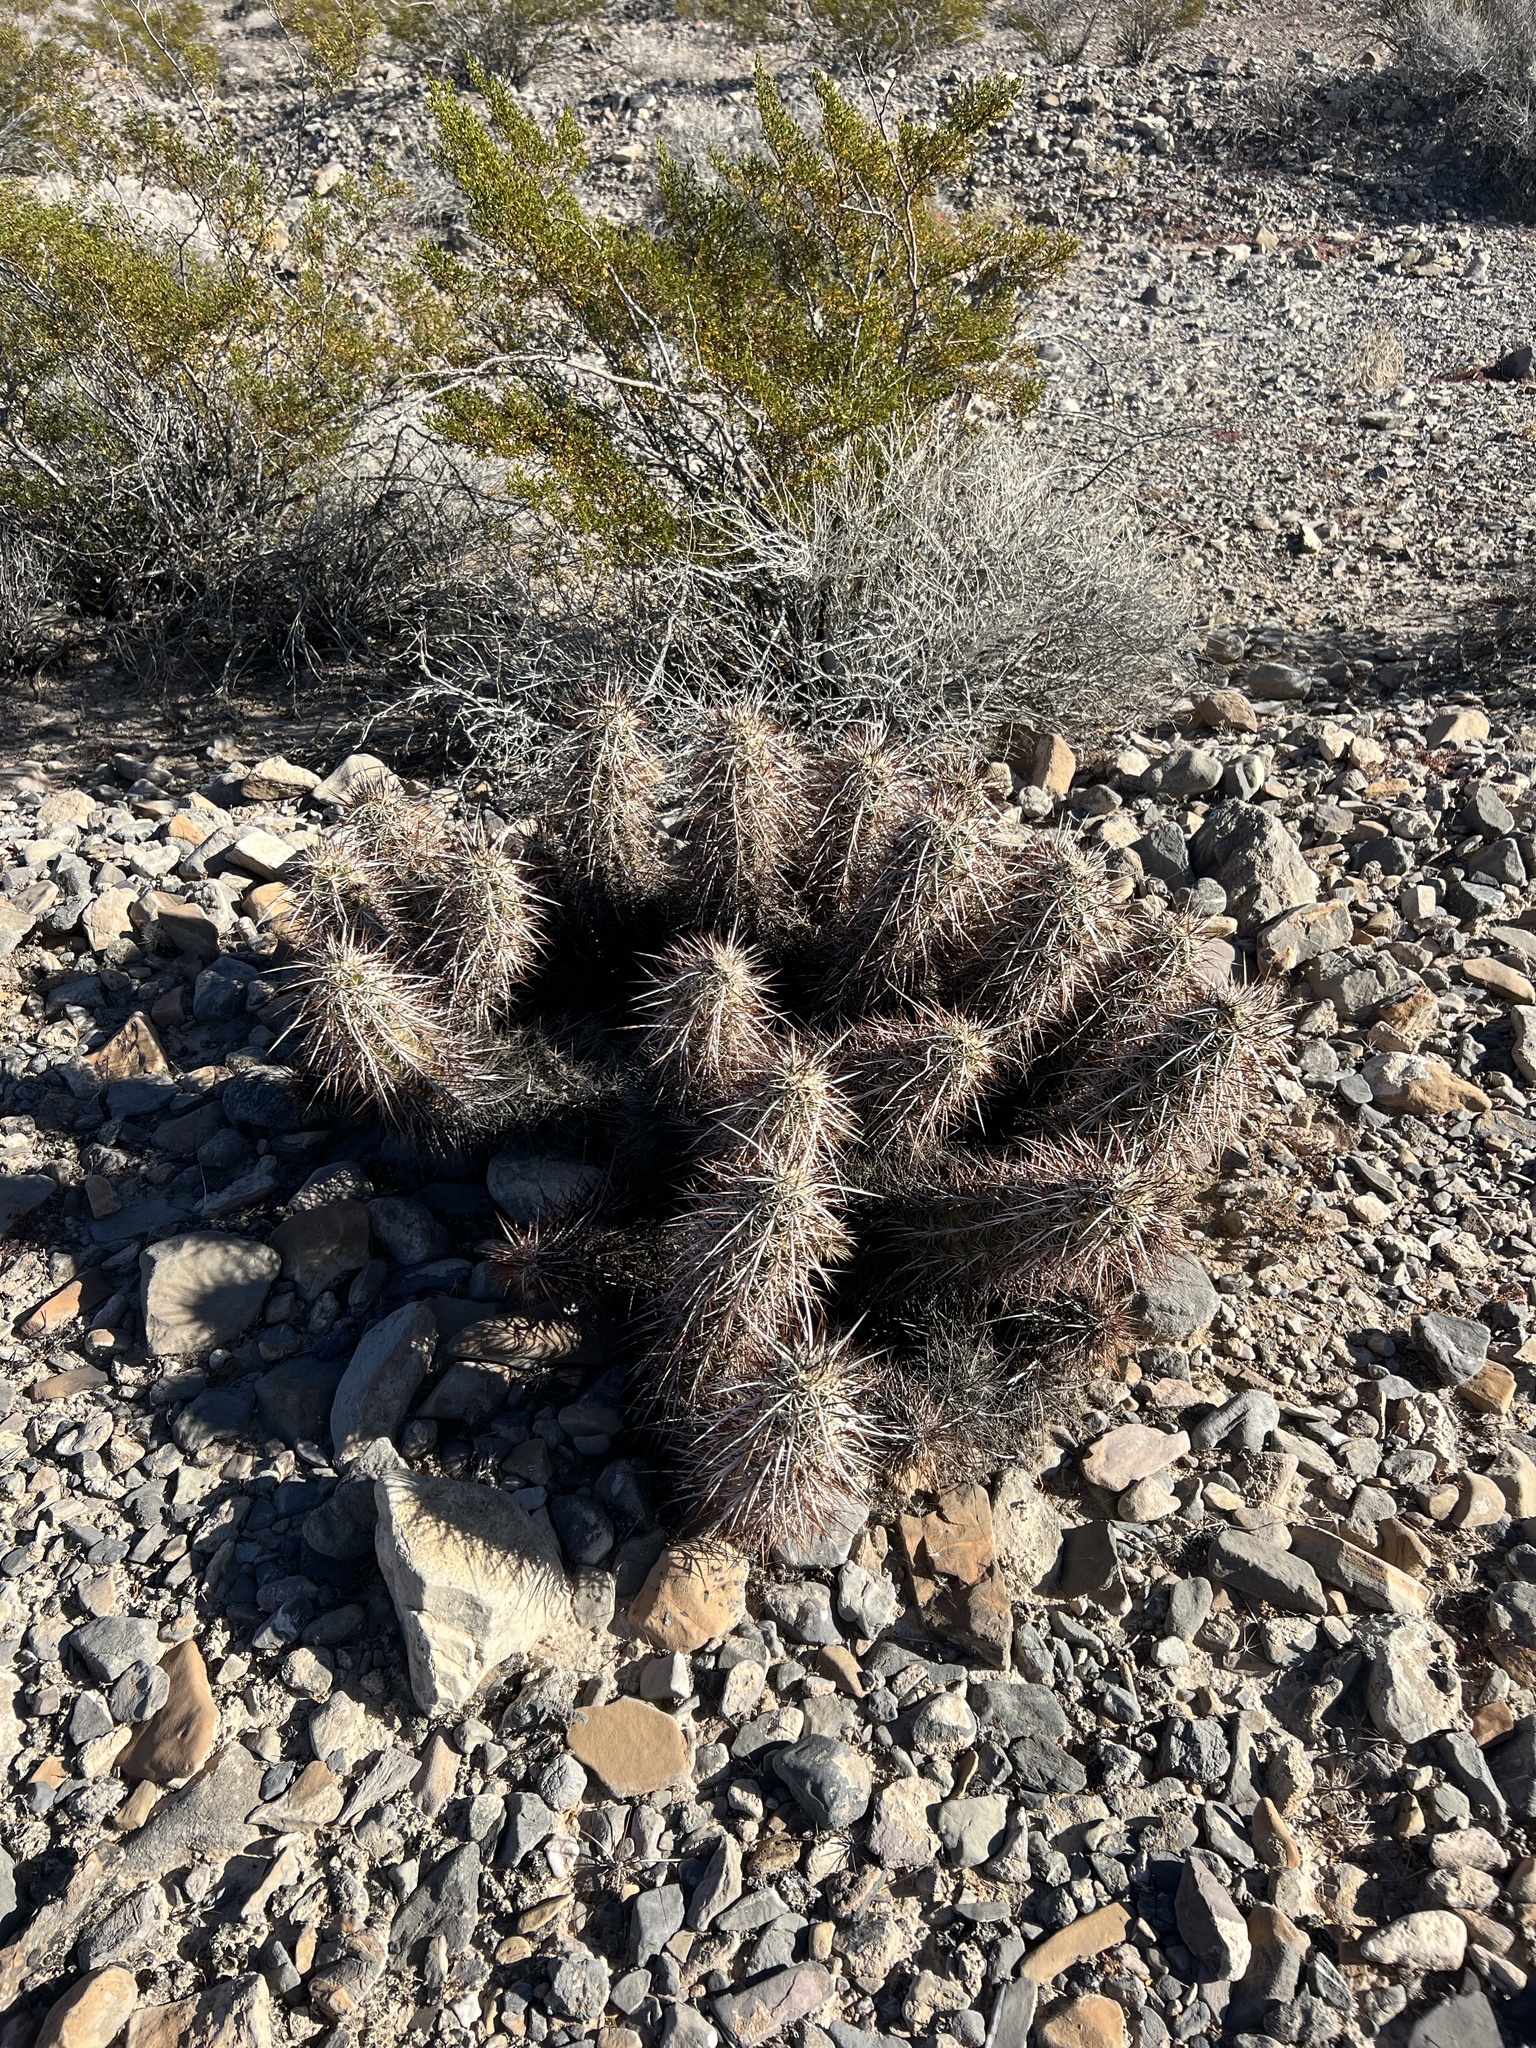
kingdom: Plantae
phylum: Tracheophyta
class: Magnoliopsida
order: Caryophyllales
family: Cactaceae
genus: Echinocereus
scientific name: Echinocereus engelmannii
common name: Engelmann's hedgehog cactus
